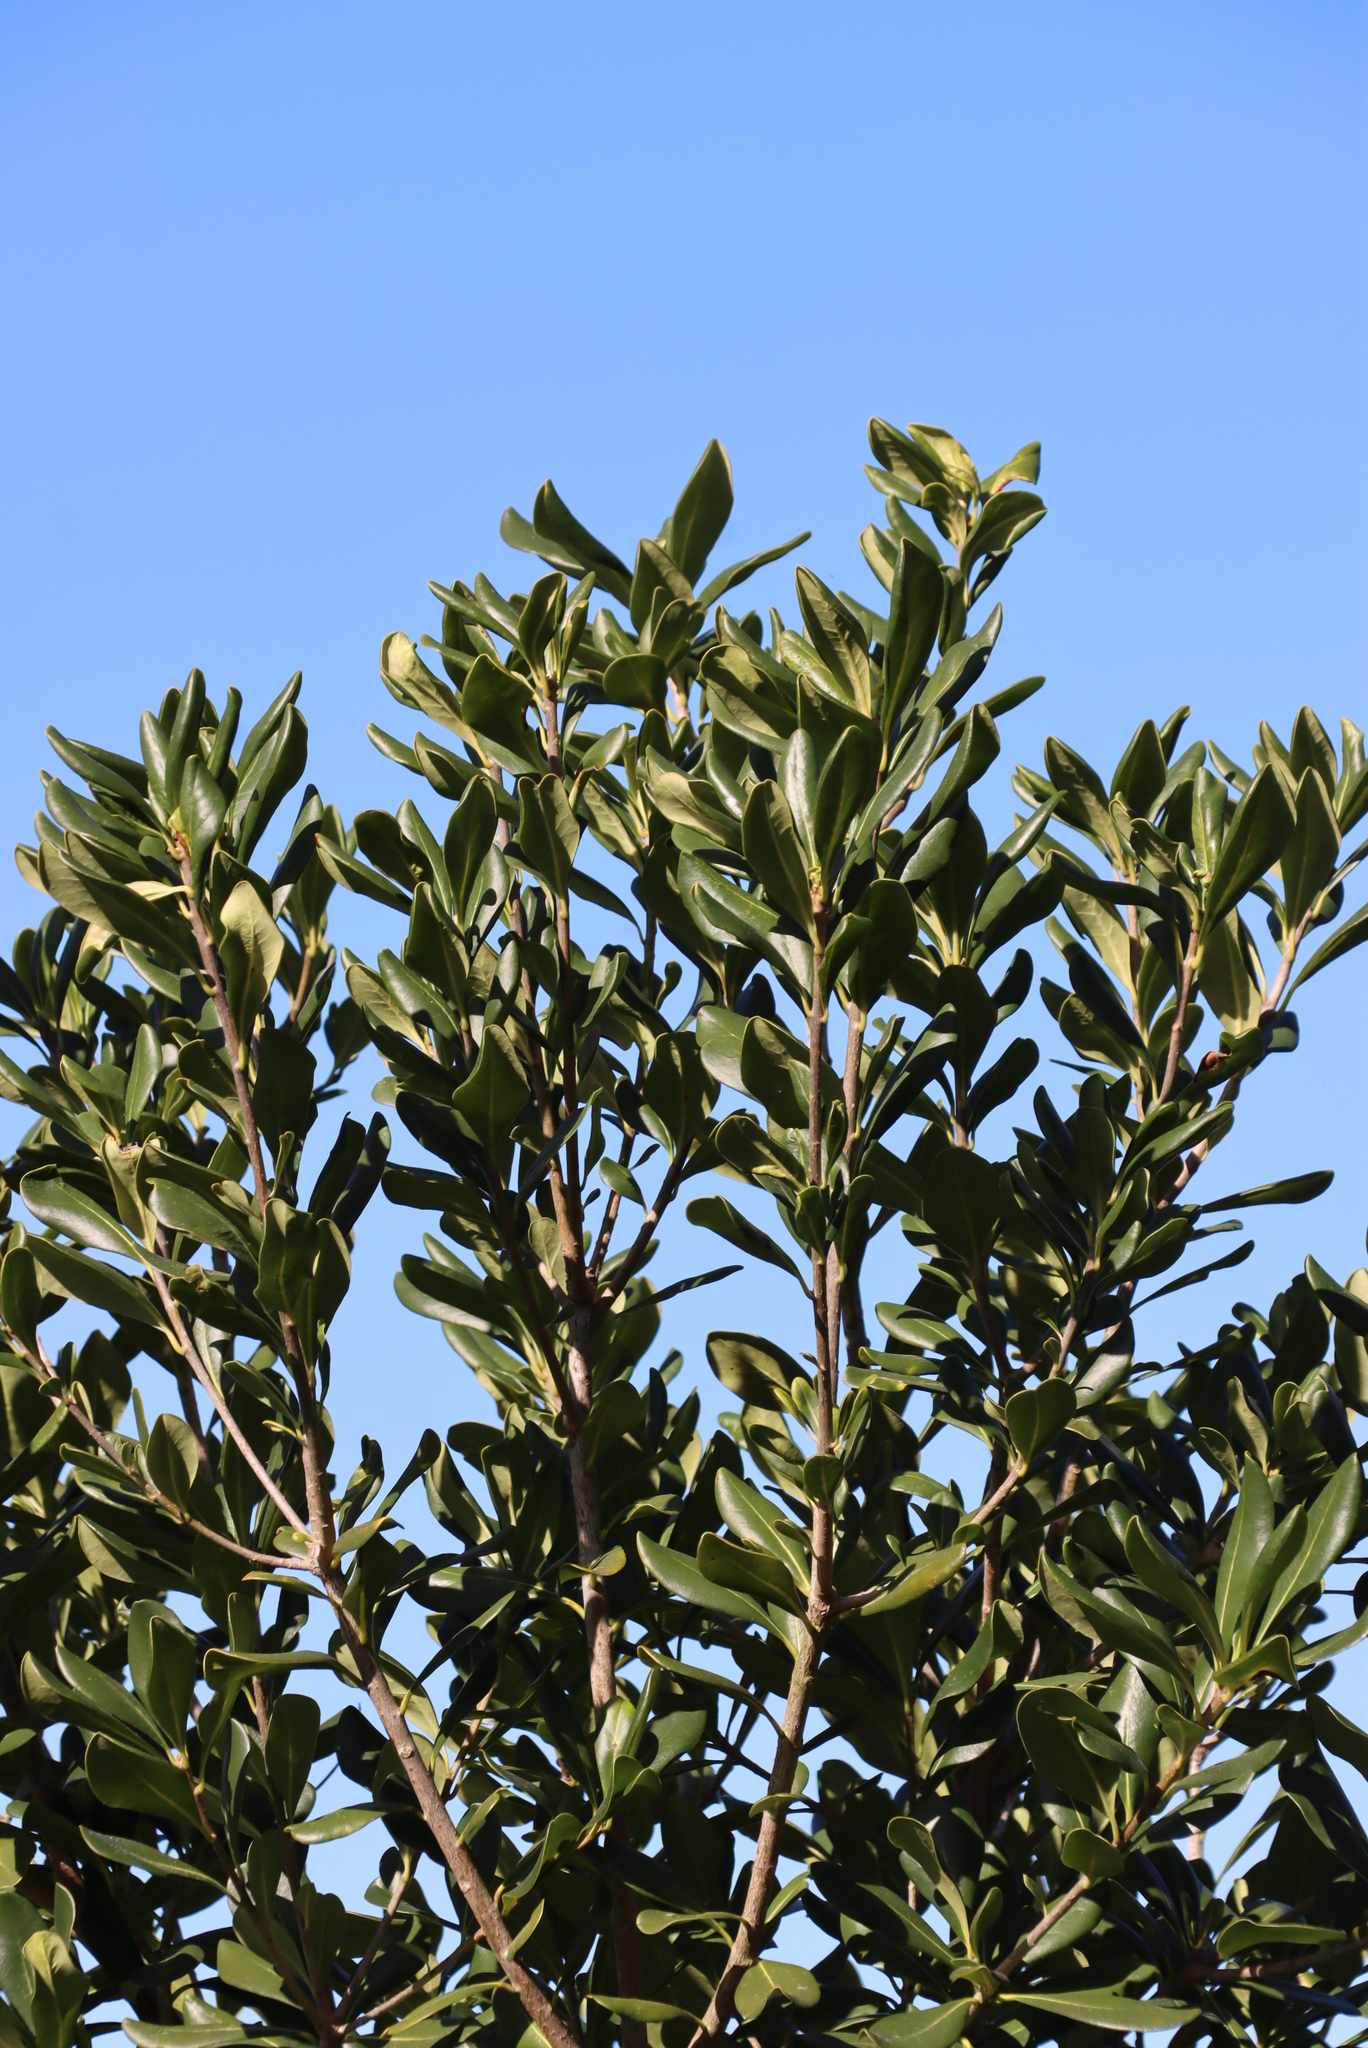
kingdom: Plantae
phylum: Tracheophyta
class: Magnoliopsida
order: Apiales
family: Pittosporaceae
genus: Pittosporum
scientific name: Pittosporum viridiflorum
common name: Cape cheesewood
